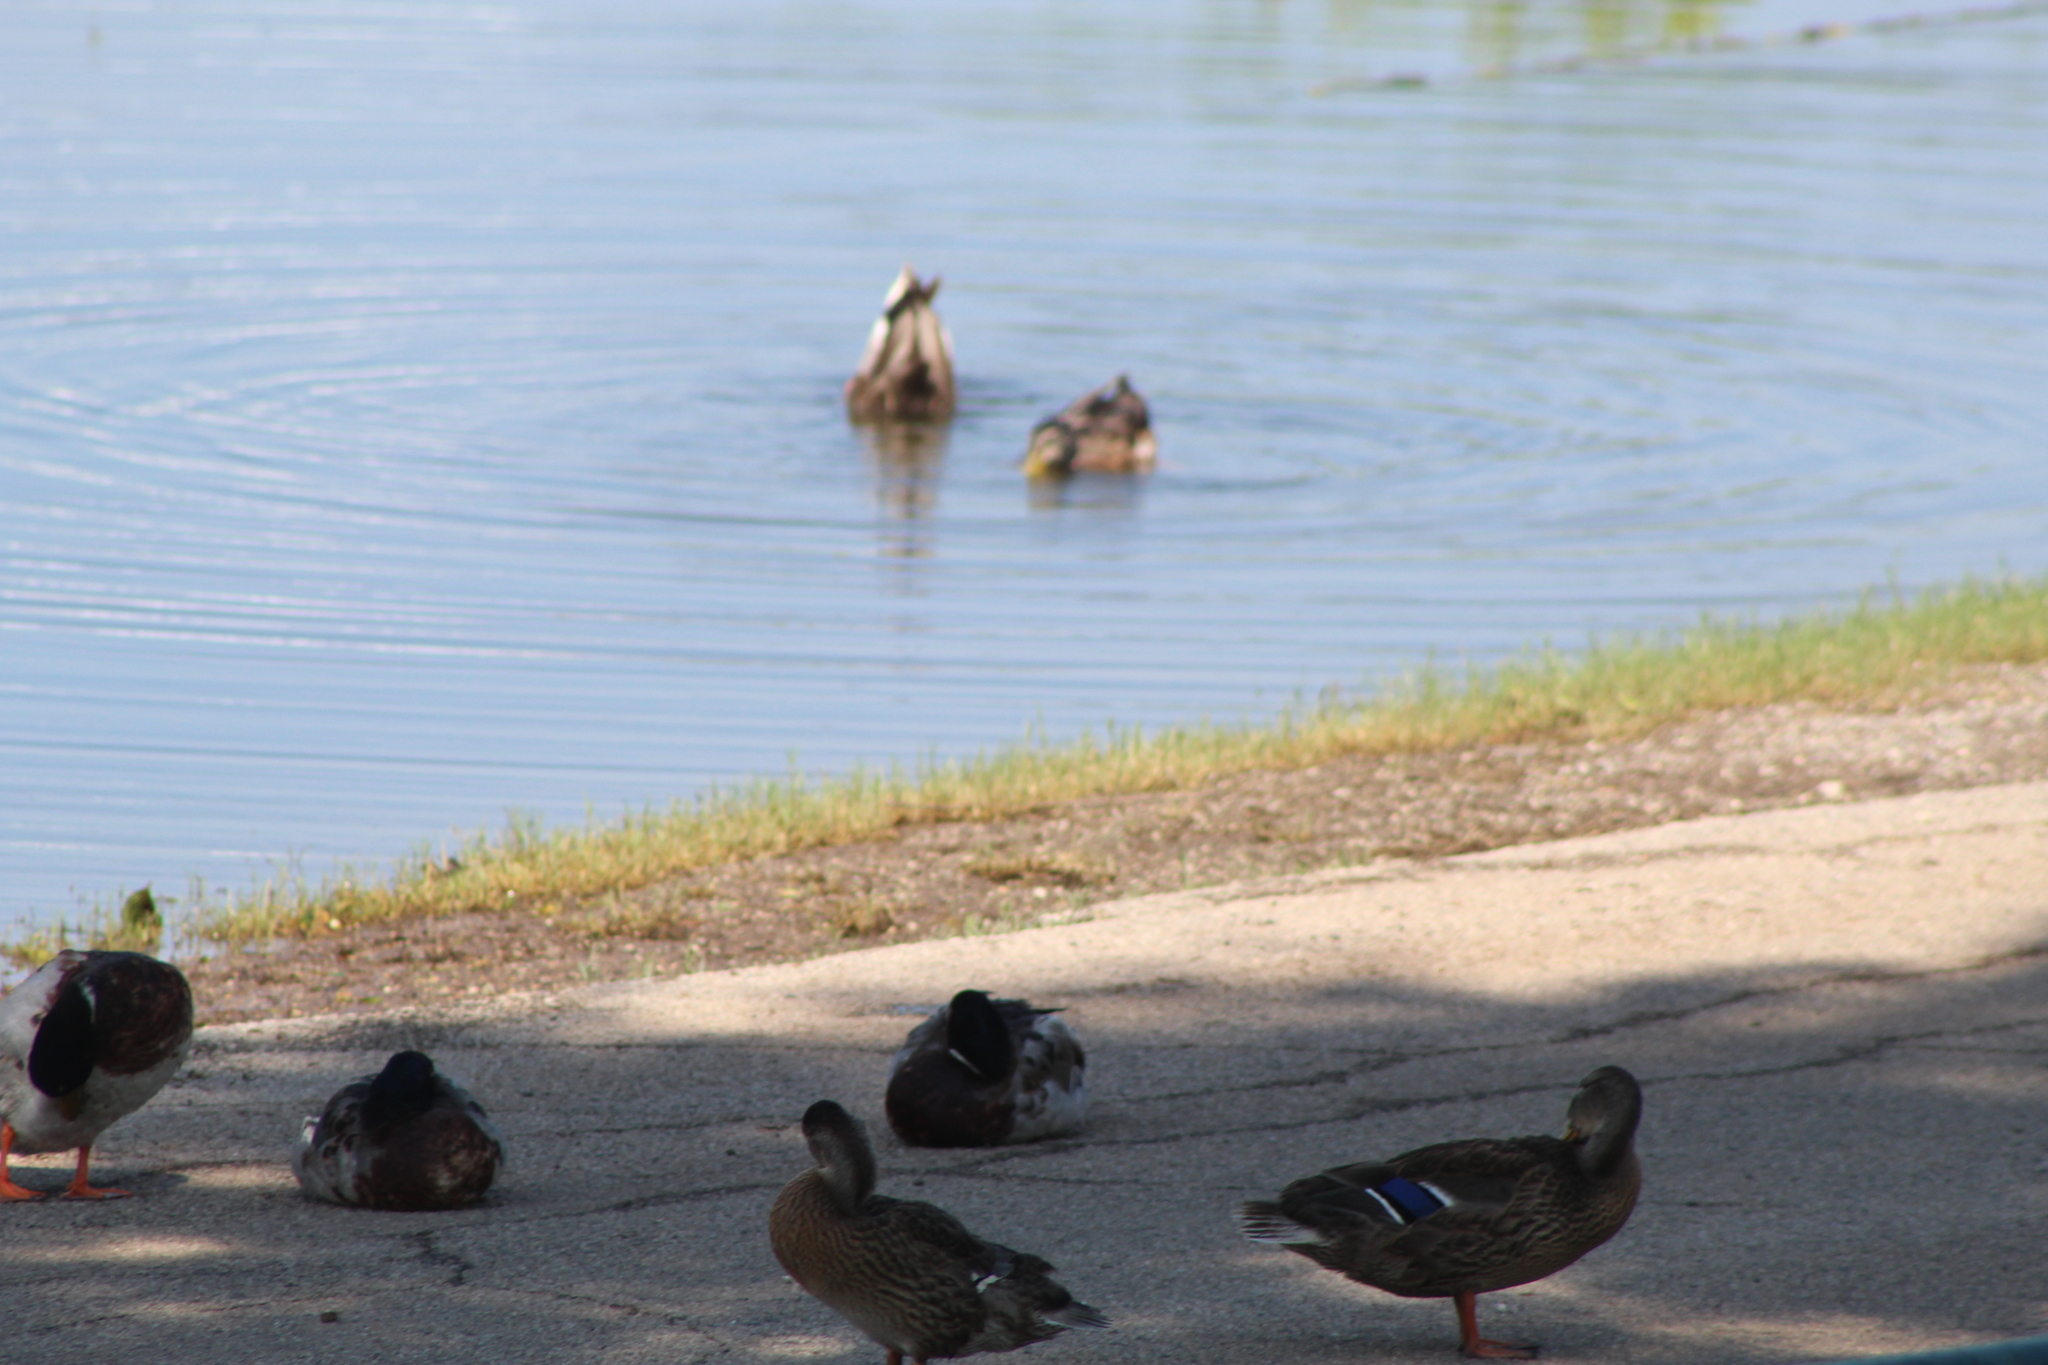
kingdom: Animalia
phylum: Chordata
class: Aves
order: Anseriformes
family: Anatidae
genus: Anas
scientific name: Anas platyrhynchos
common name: Mallard
